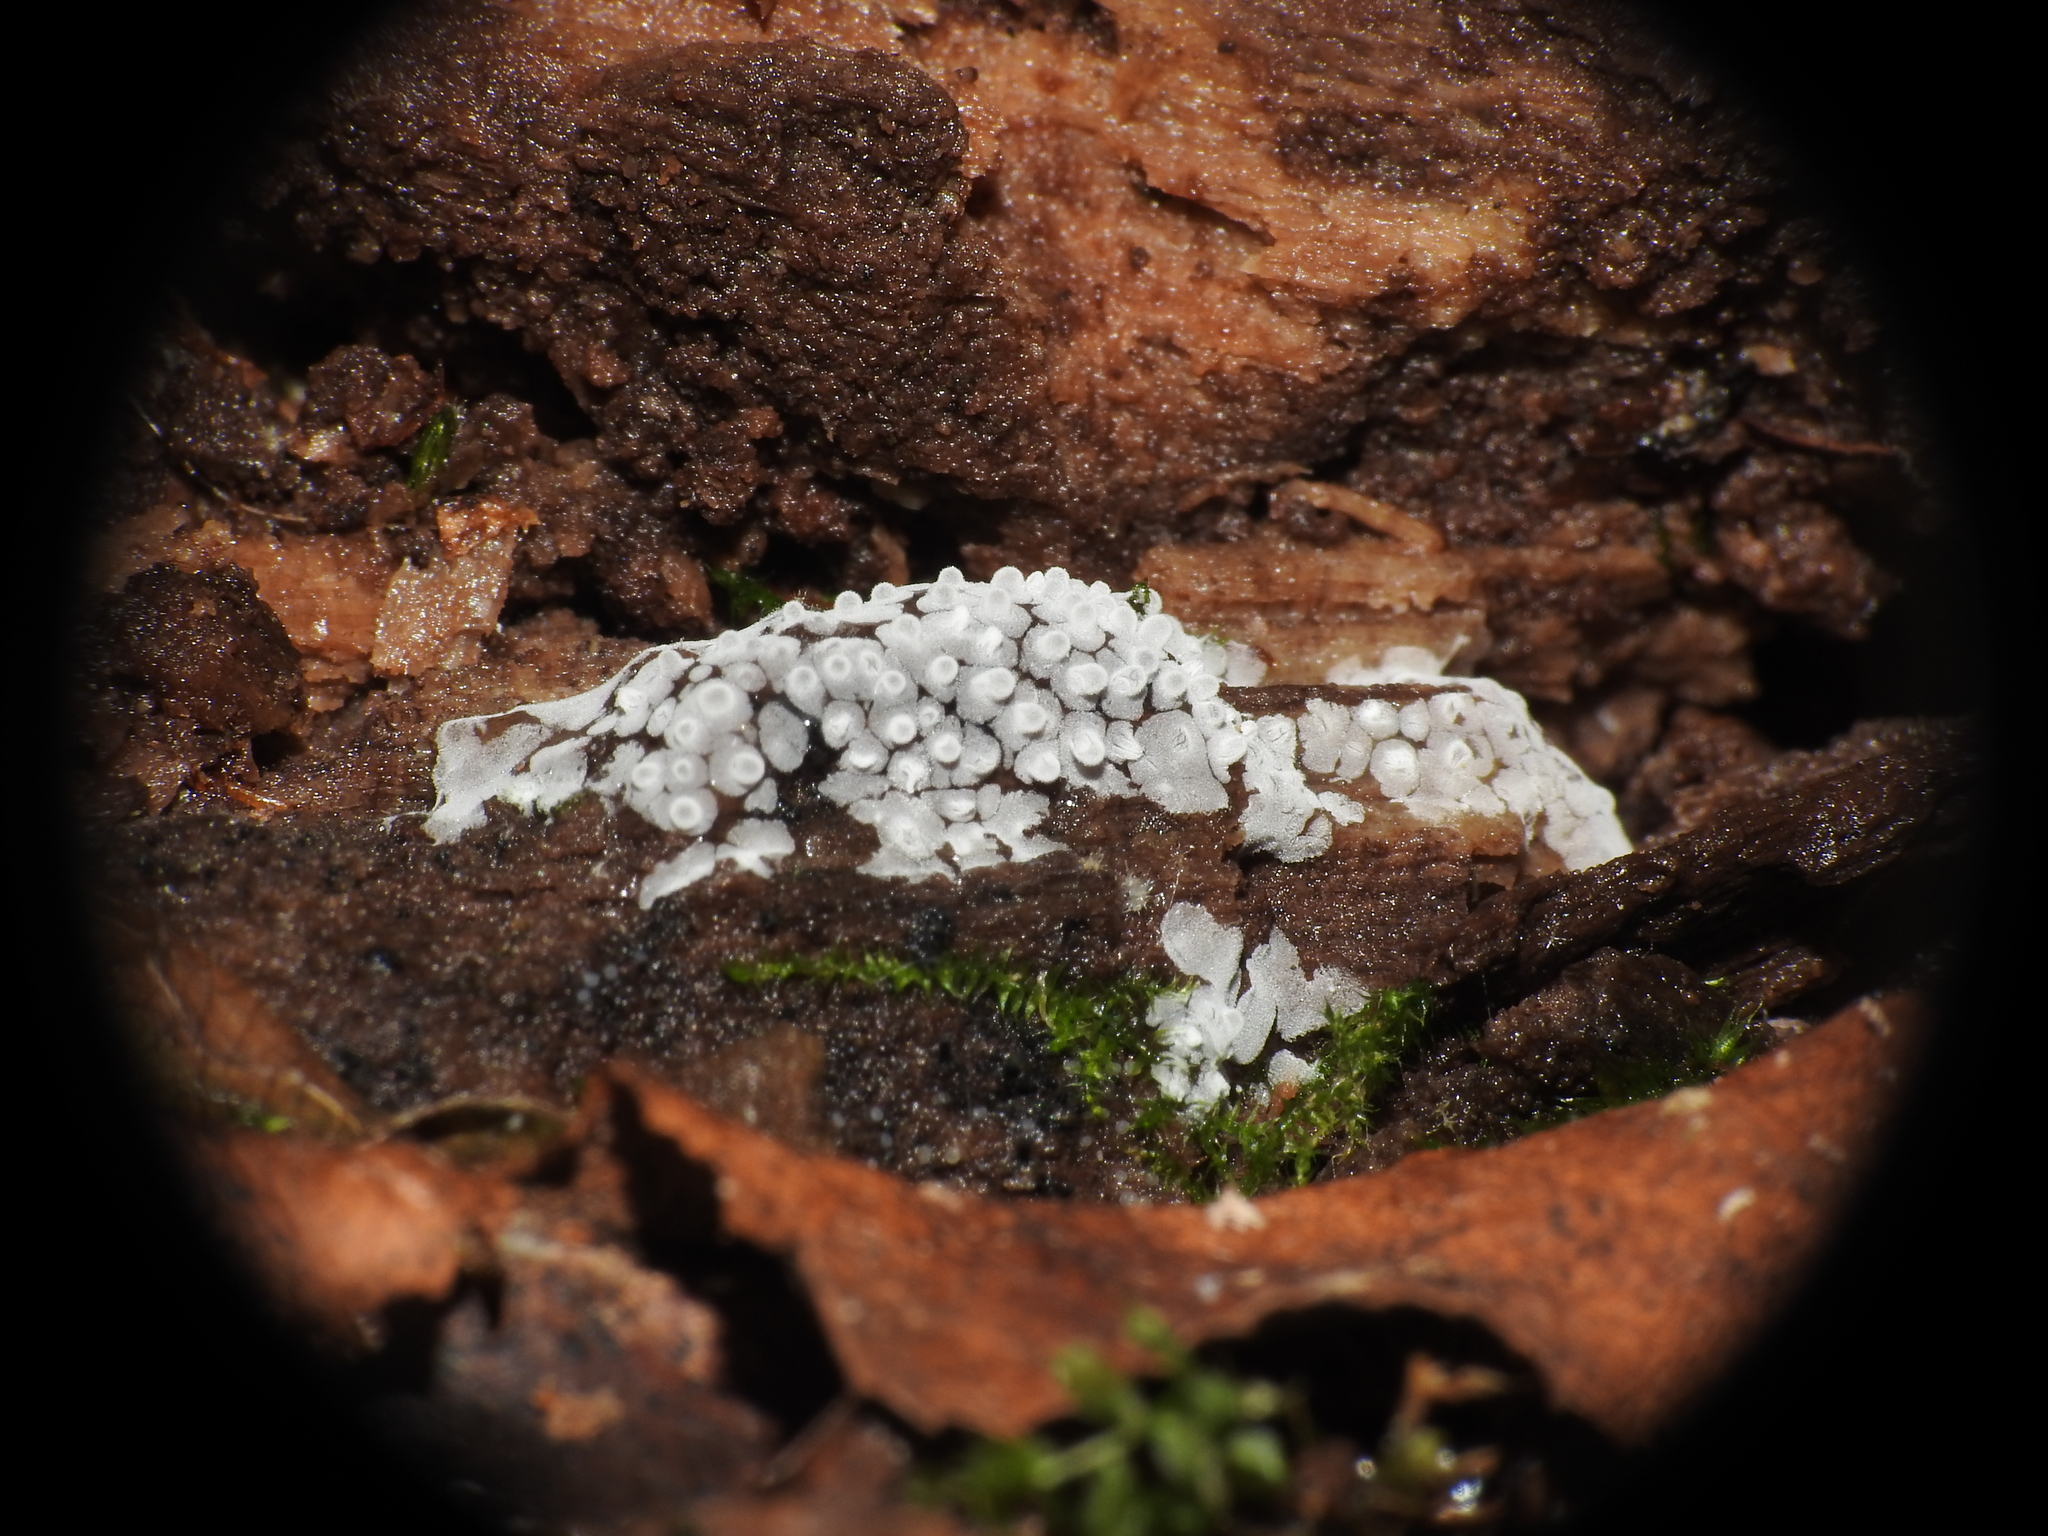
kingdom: Protozoa
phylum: Mycetozoa
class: Protosteliomycetes
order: Ceratiomyxales
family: Ceratiomyxaceae
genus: Ceratiomyxa
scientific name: Ceratiomyxa fruticulosa
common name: Honeycomb coral slime mold
